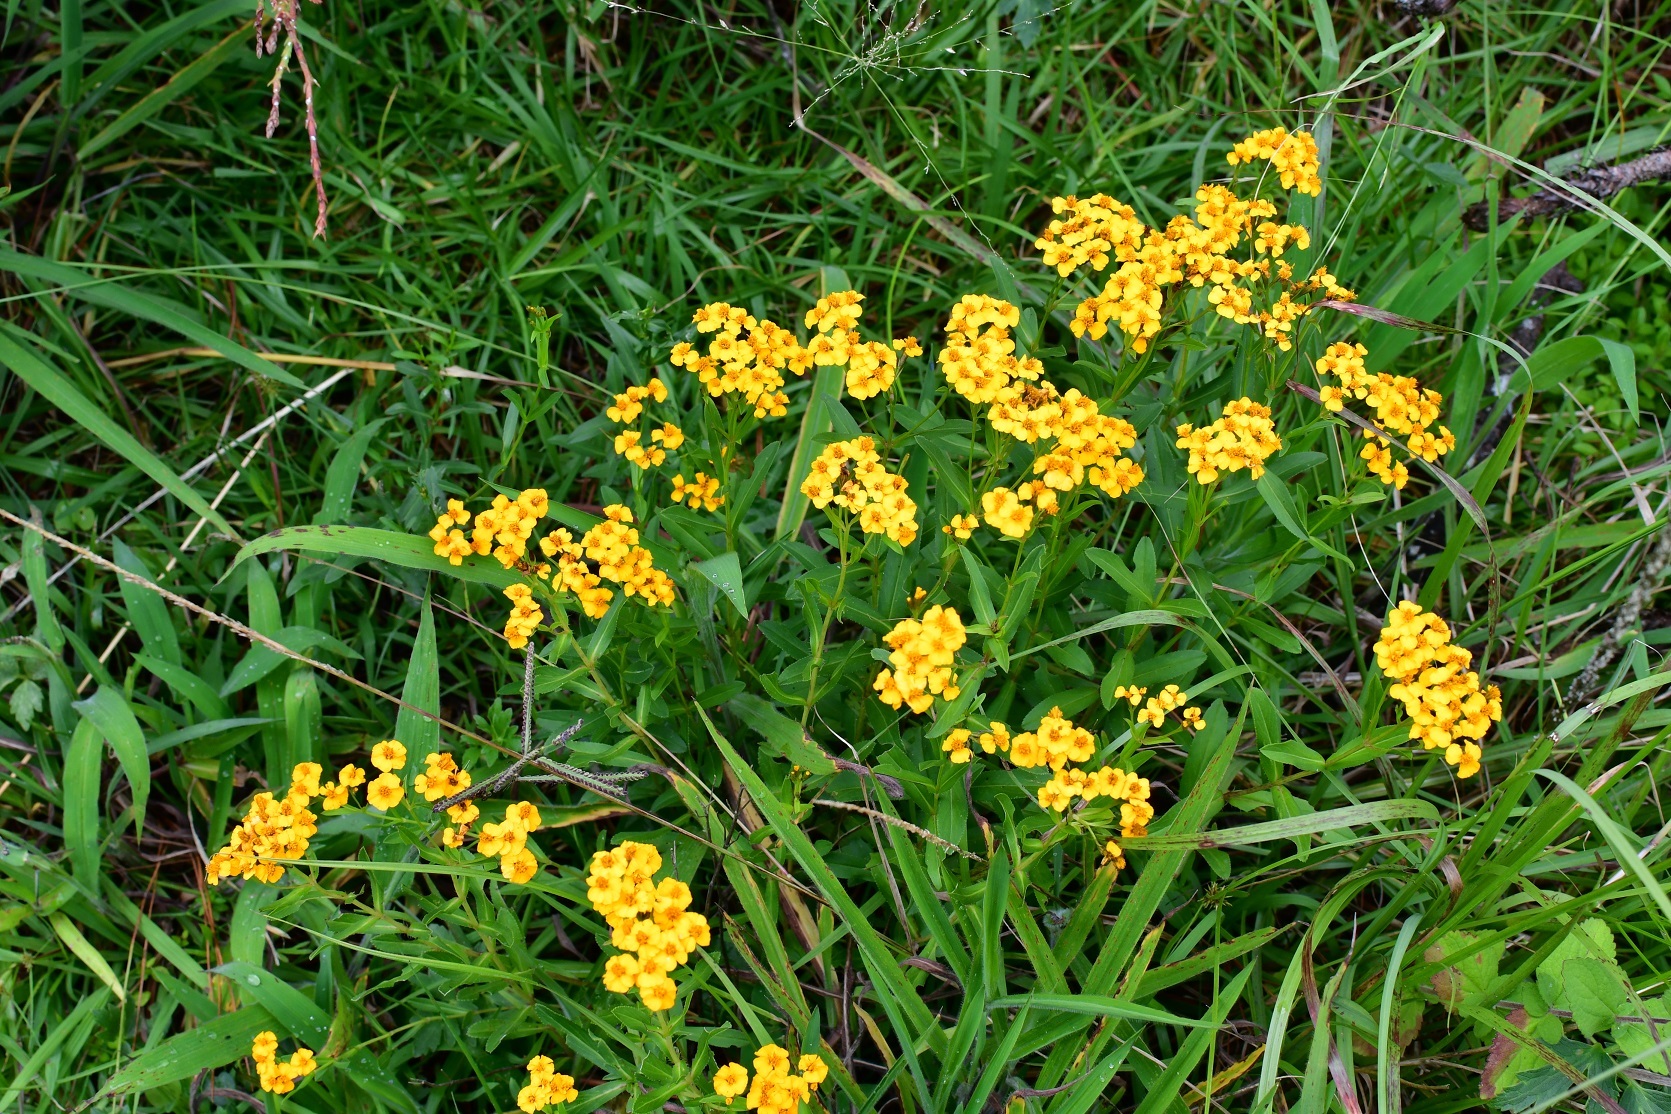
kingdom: Plantae
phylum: Tracheophyta
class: Magnoliopsida
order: Asterales
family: Asteraceae
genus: Tagetes
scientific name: Tagetes lucida
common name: Sweetscented marigold
